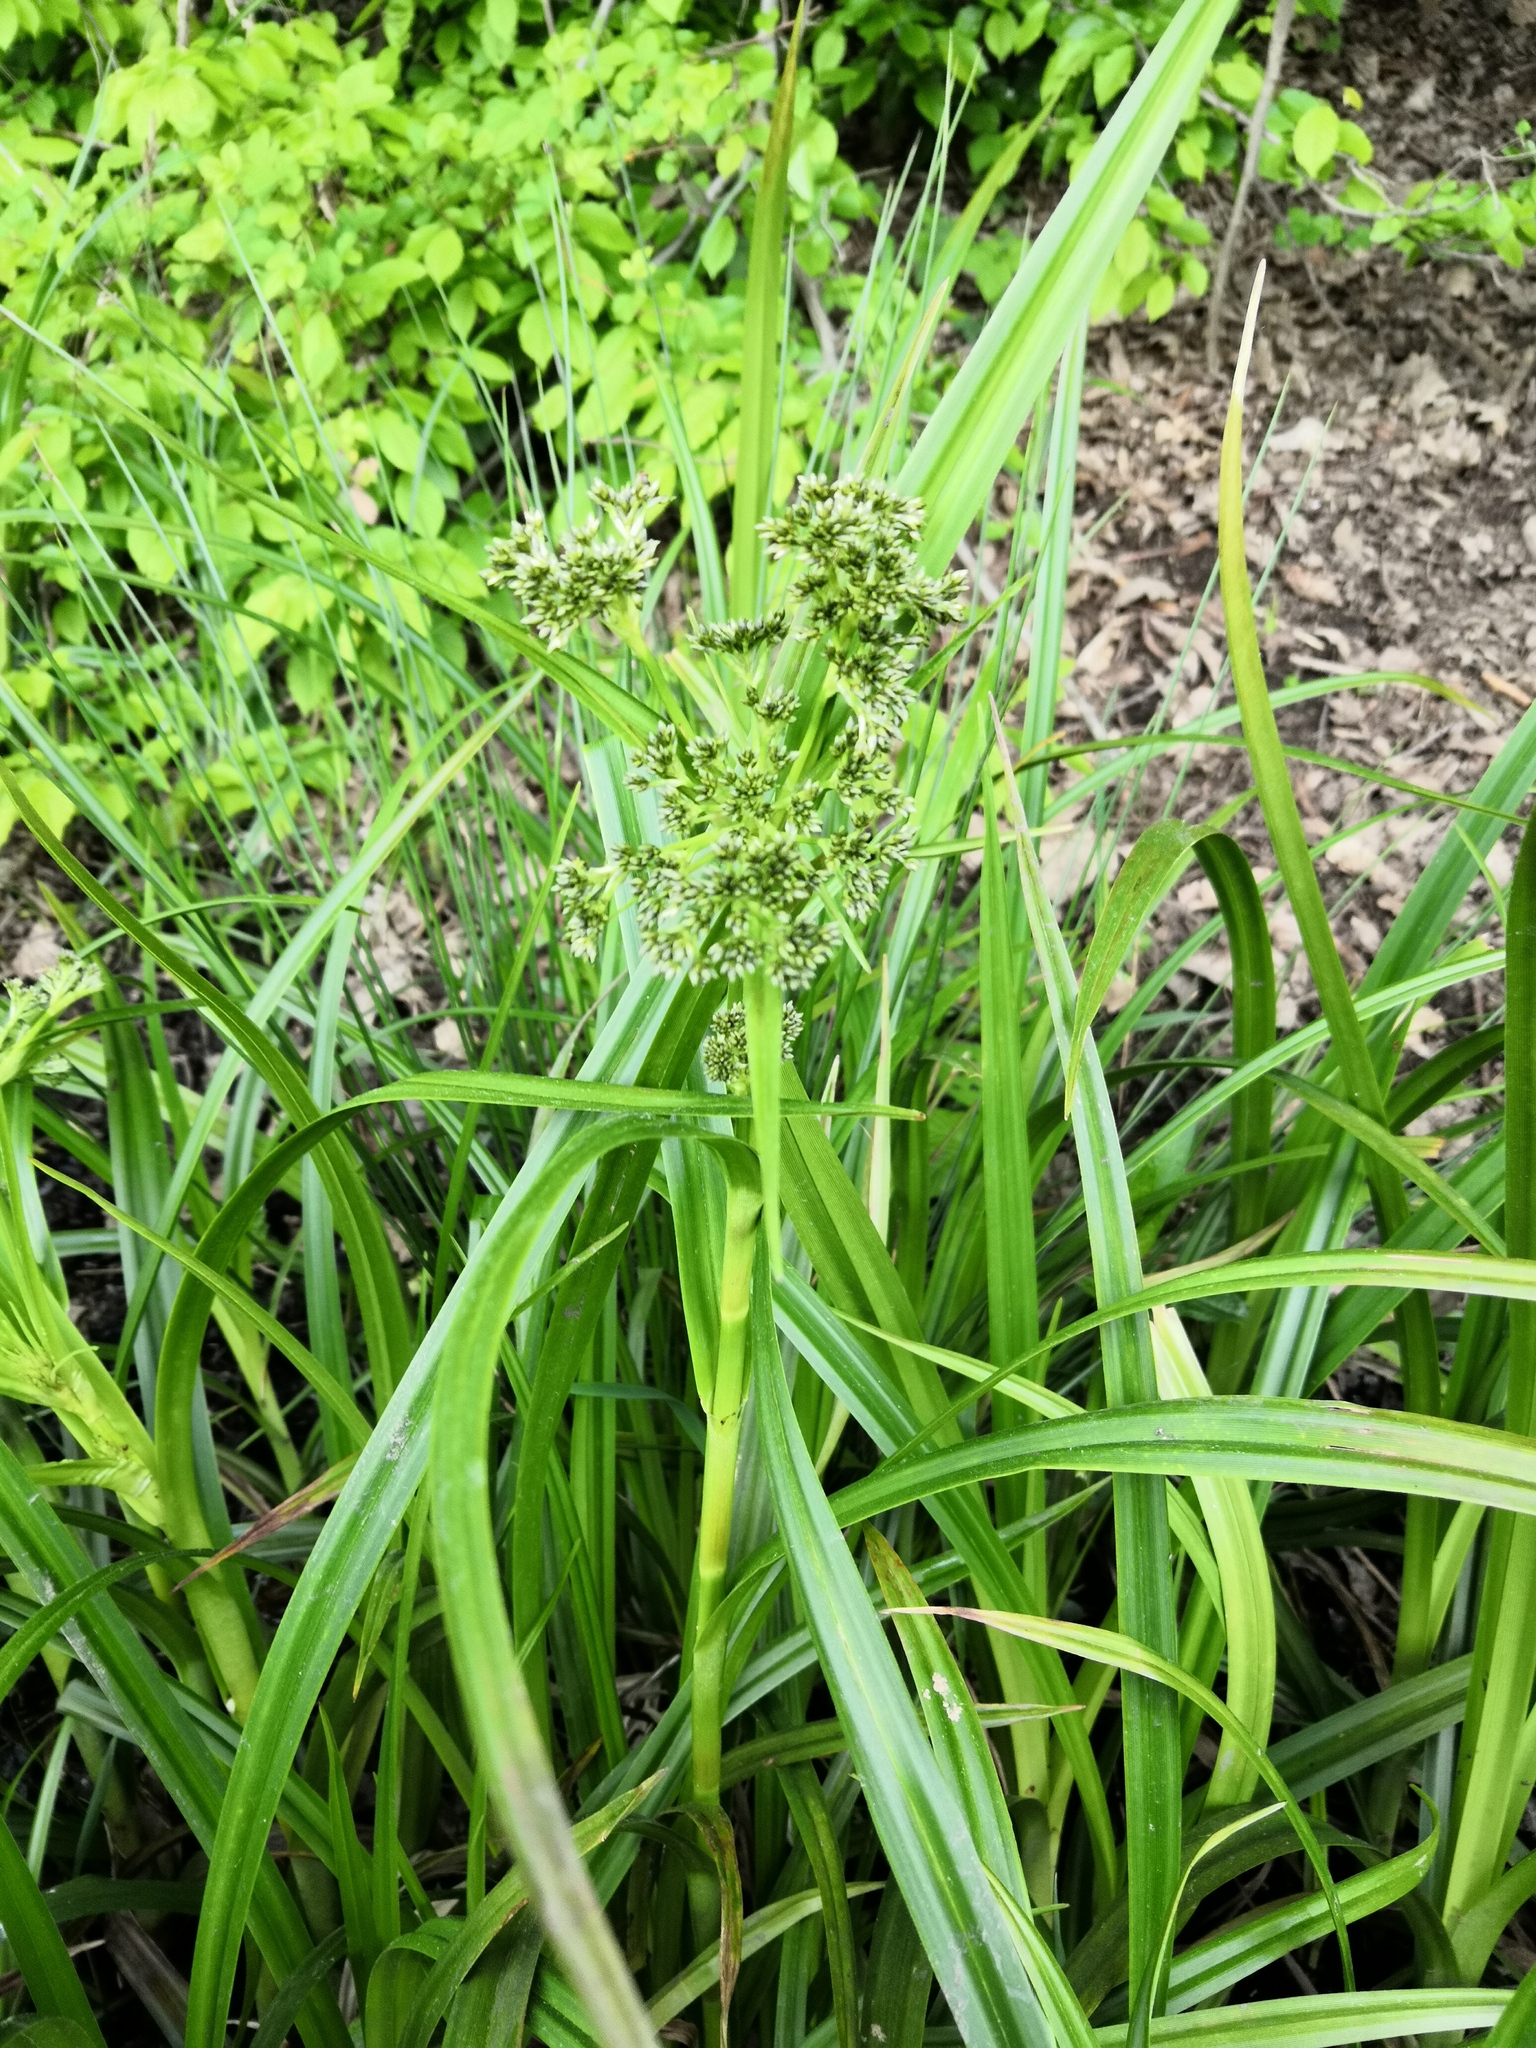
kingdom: Plantae
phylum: Tracheophyta
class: Liliopsida
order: Poales
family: Cyperaceae
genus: Scirpus
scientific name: Scirpus sylvaticus
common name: Wood club-rush
